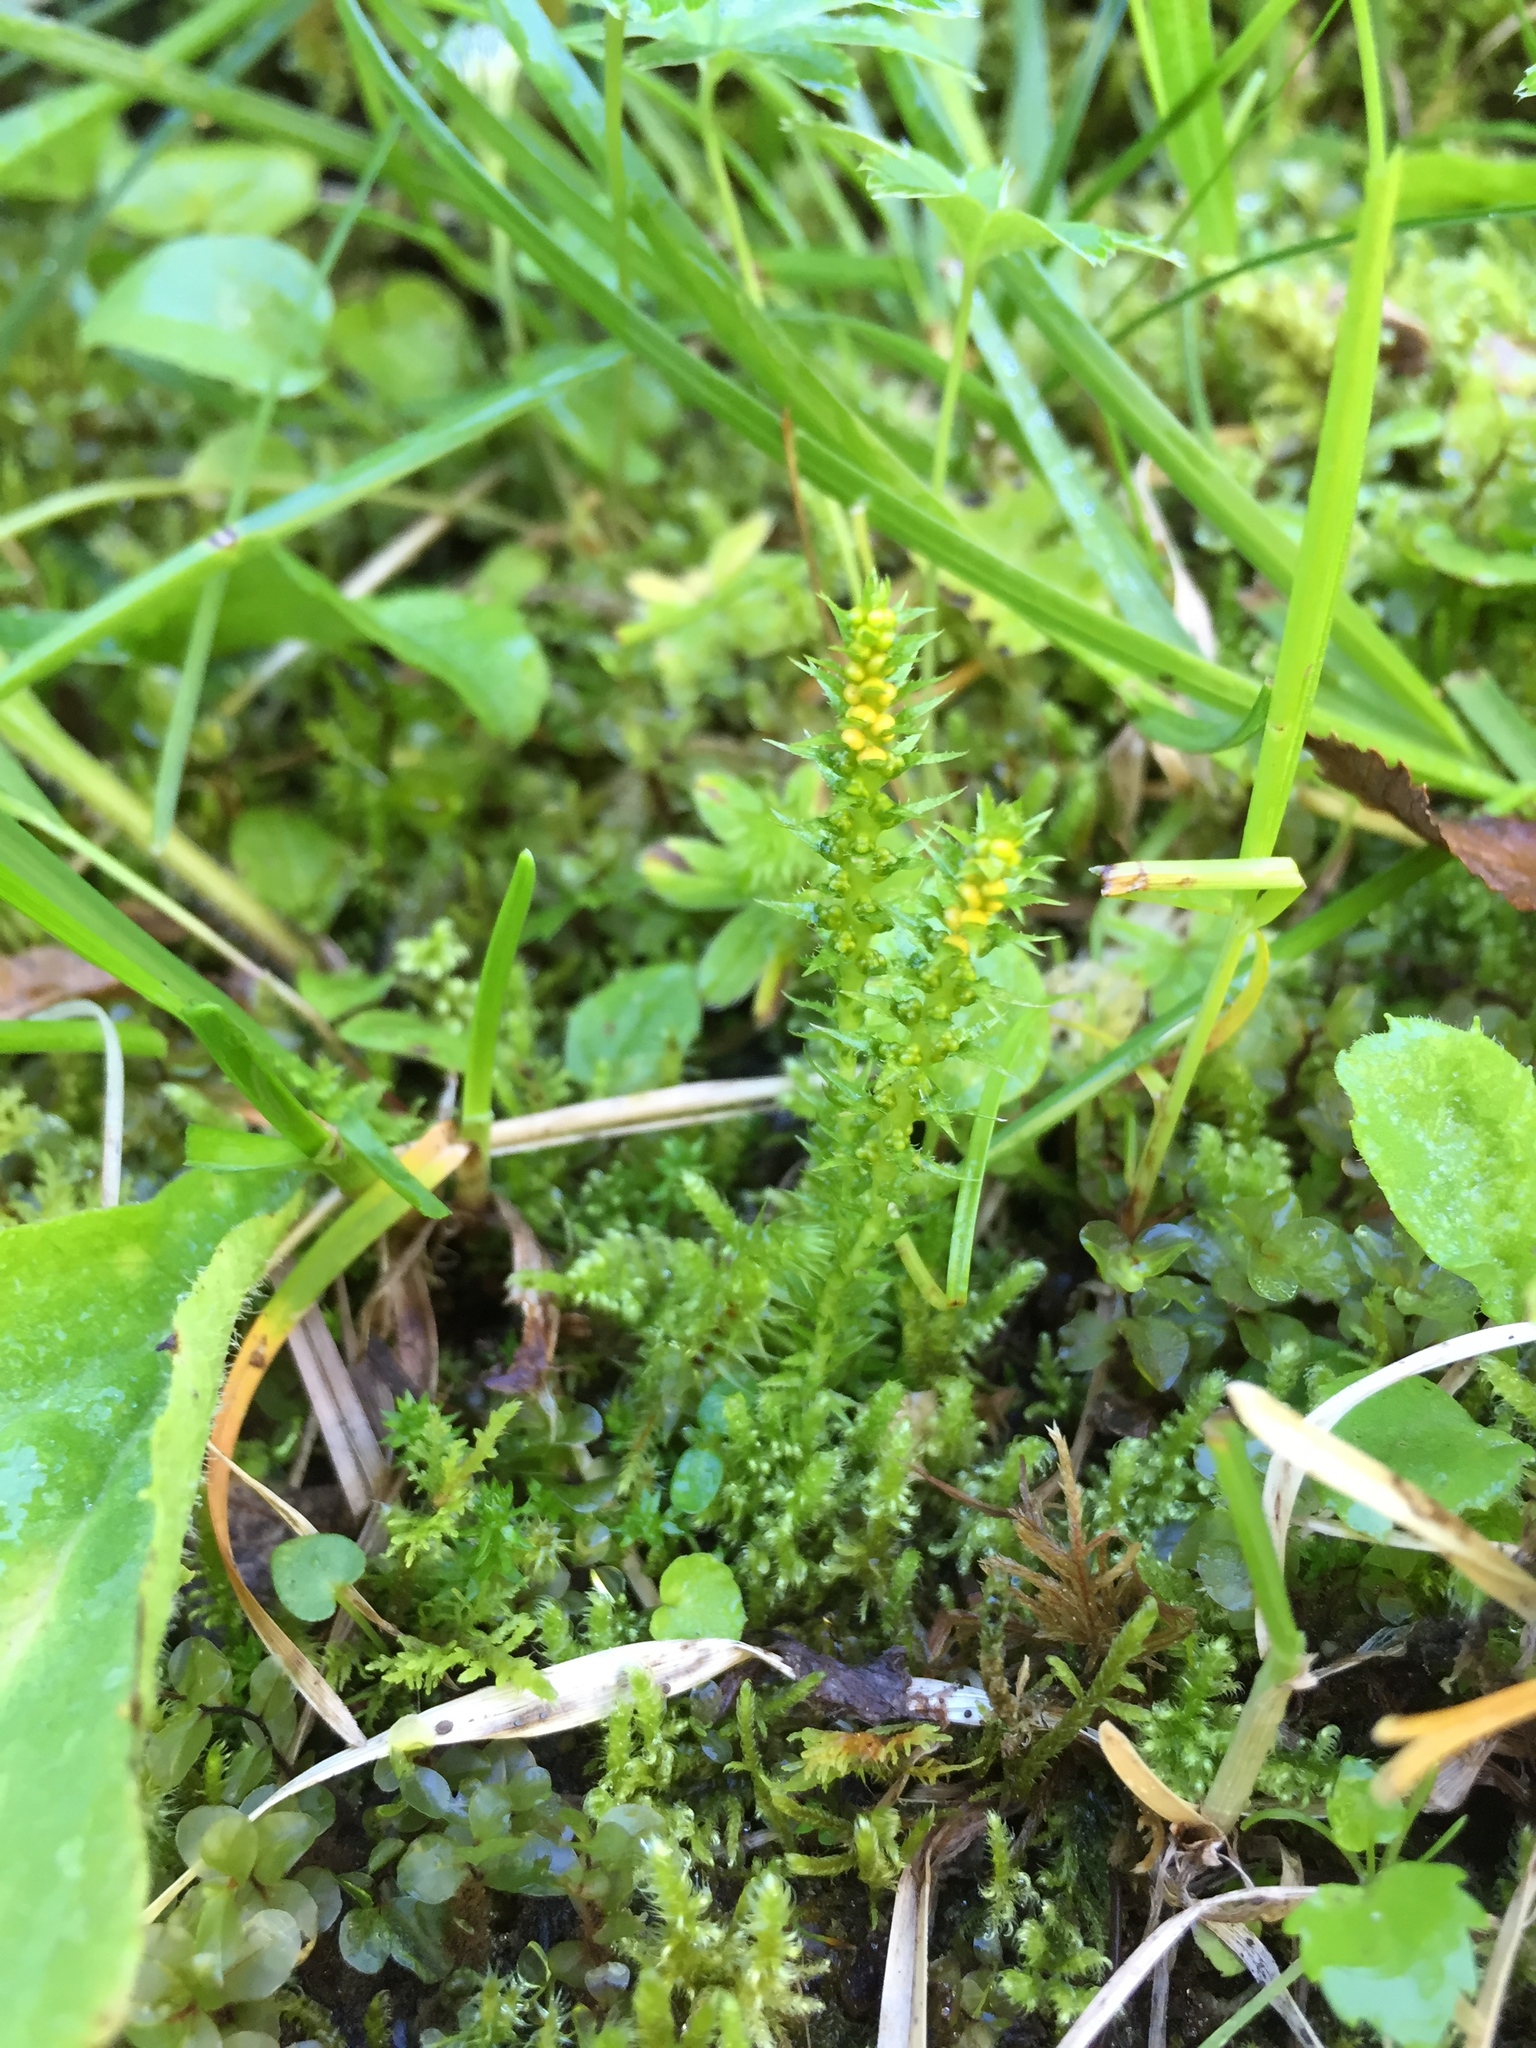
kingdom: Plantae
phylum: Tracheophyta
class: Lycopodiopsida
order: Selaginellales
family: Selaginellaceae
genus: Selaginella
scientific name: Selaginella selaginoides
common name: Prickly mountain-moss
